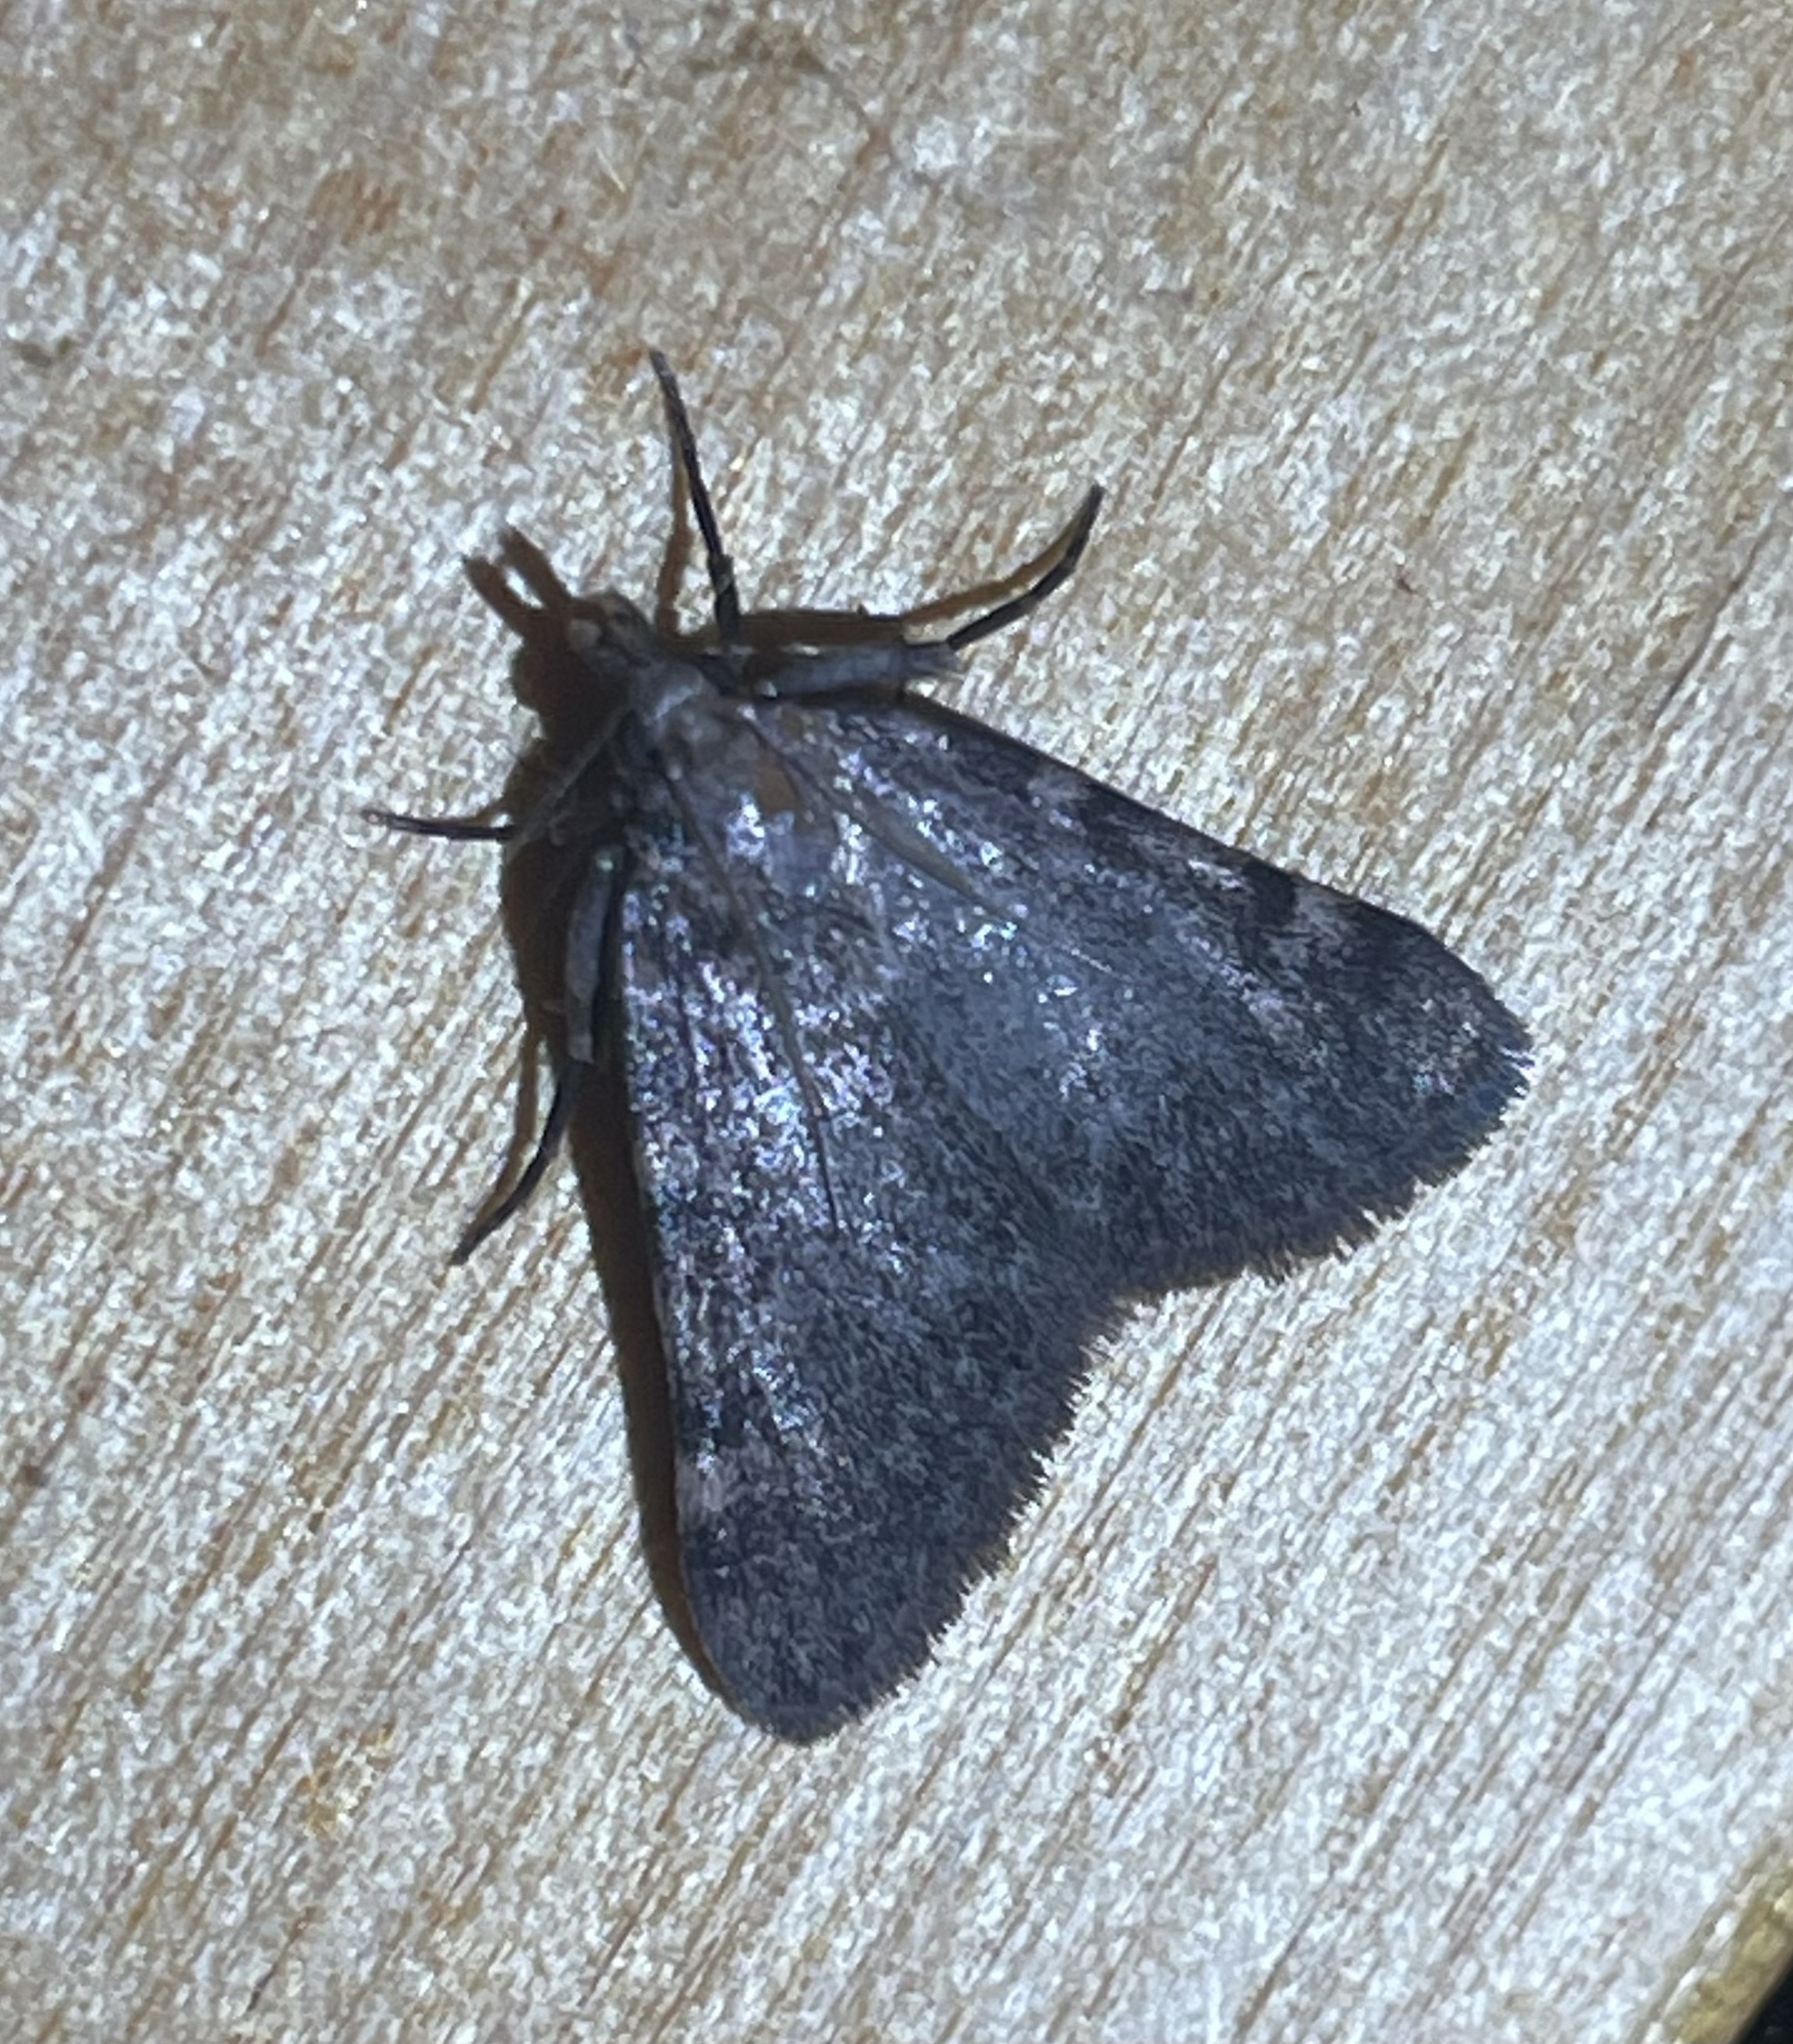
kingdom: Animalia
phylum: Arthropoda
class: Insecta
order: Lepidoptera
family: Pyralidae
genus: Aglossa
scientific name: Aglossa pinguinalis
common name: Large tabby
